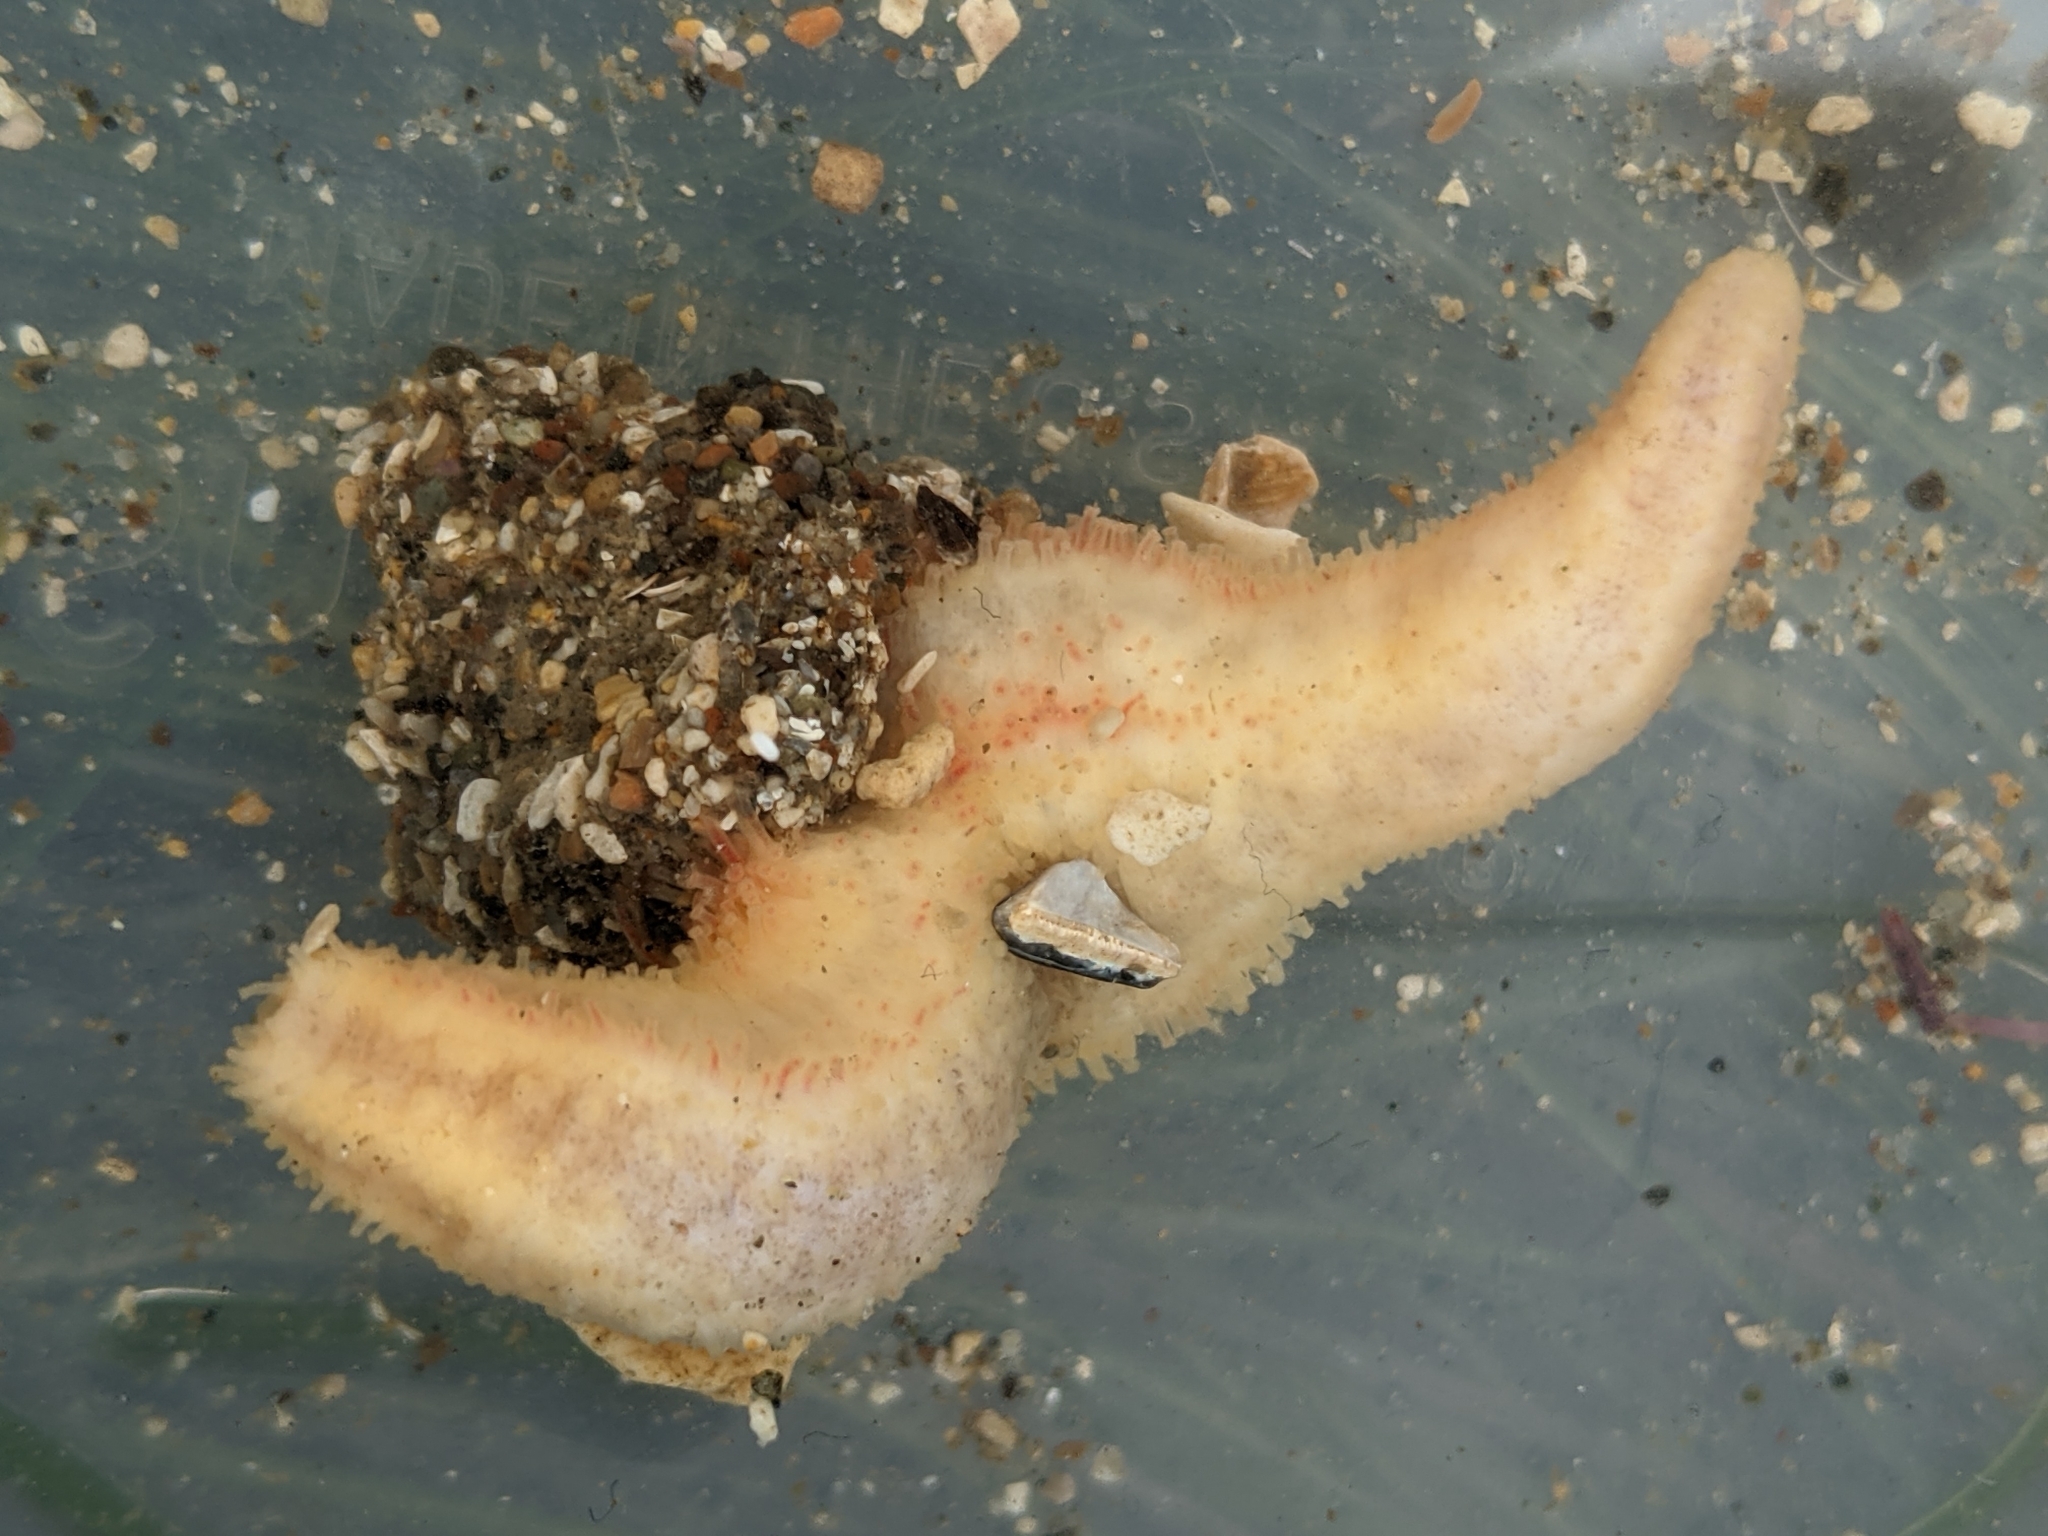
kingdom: Animalia
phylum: Echinodermata
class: Holothuroidea
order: Dendrochirotida
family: Cucumariidae
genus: Cucumaria
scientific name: Cucumaria piperata
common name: Peppered sea cucumber
